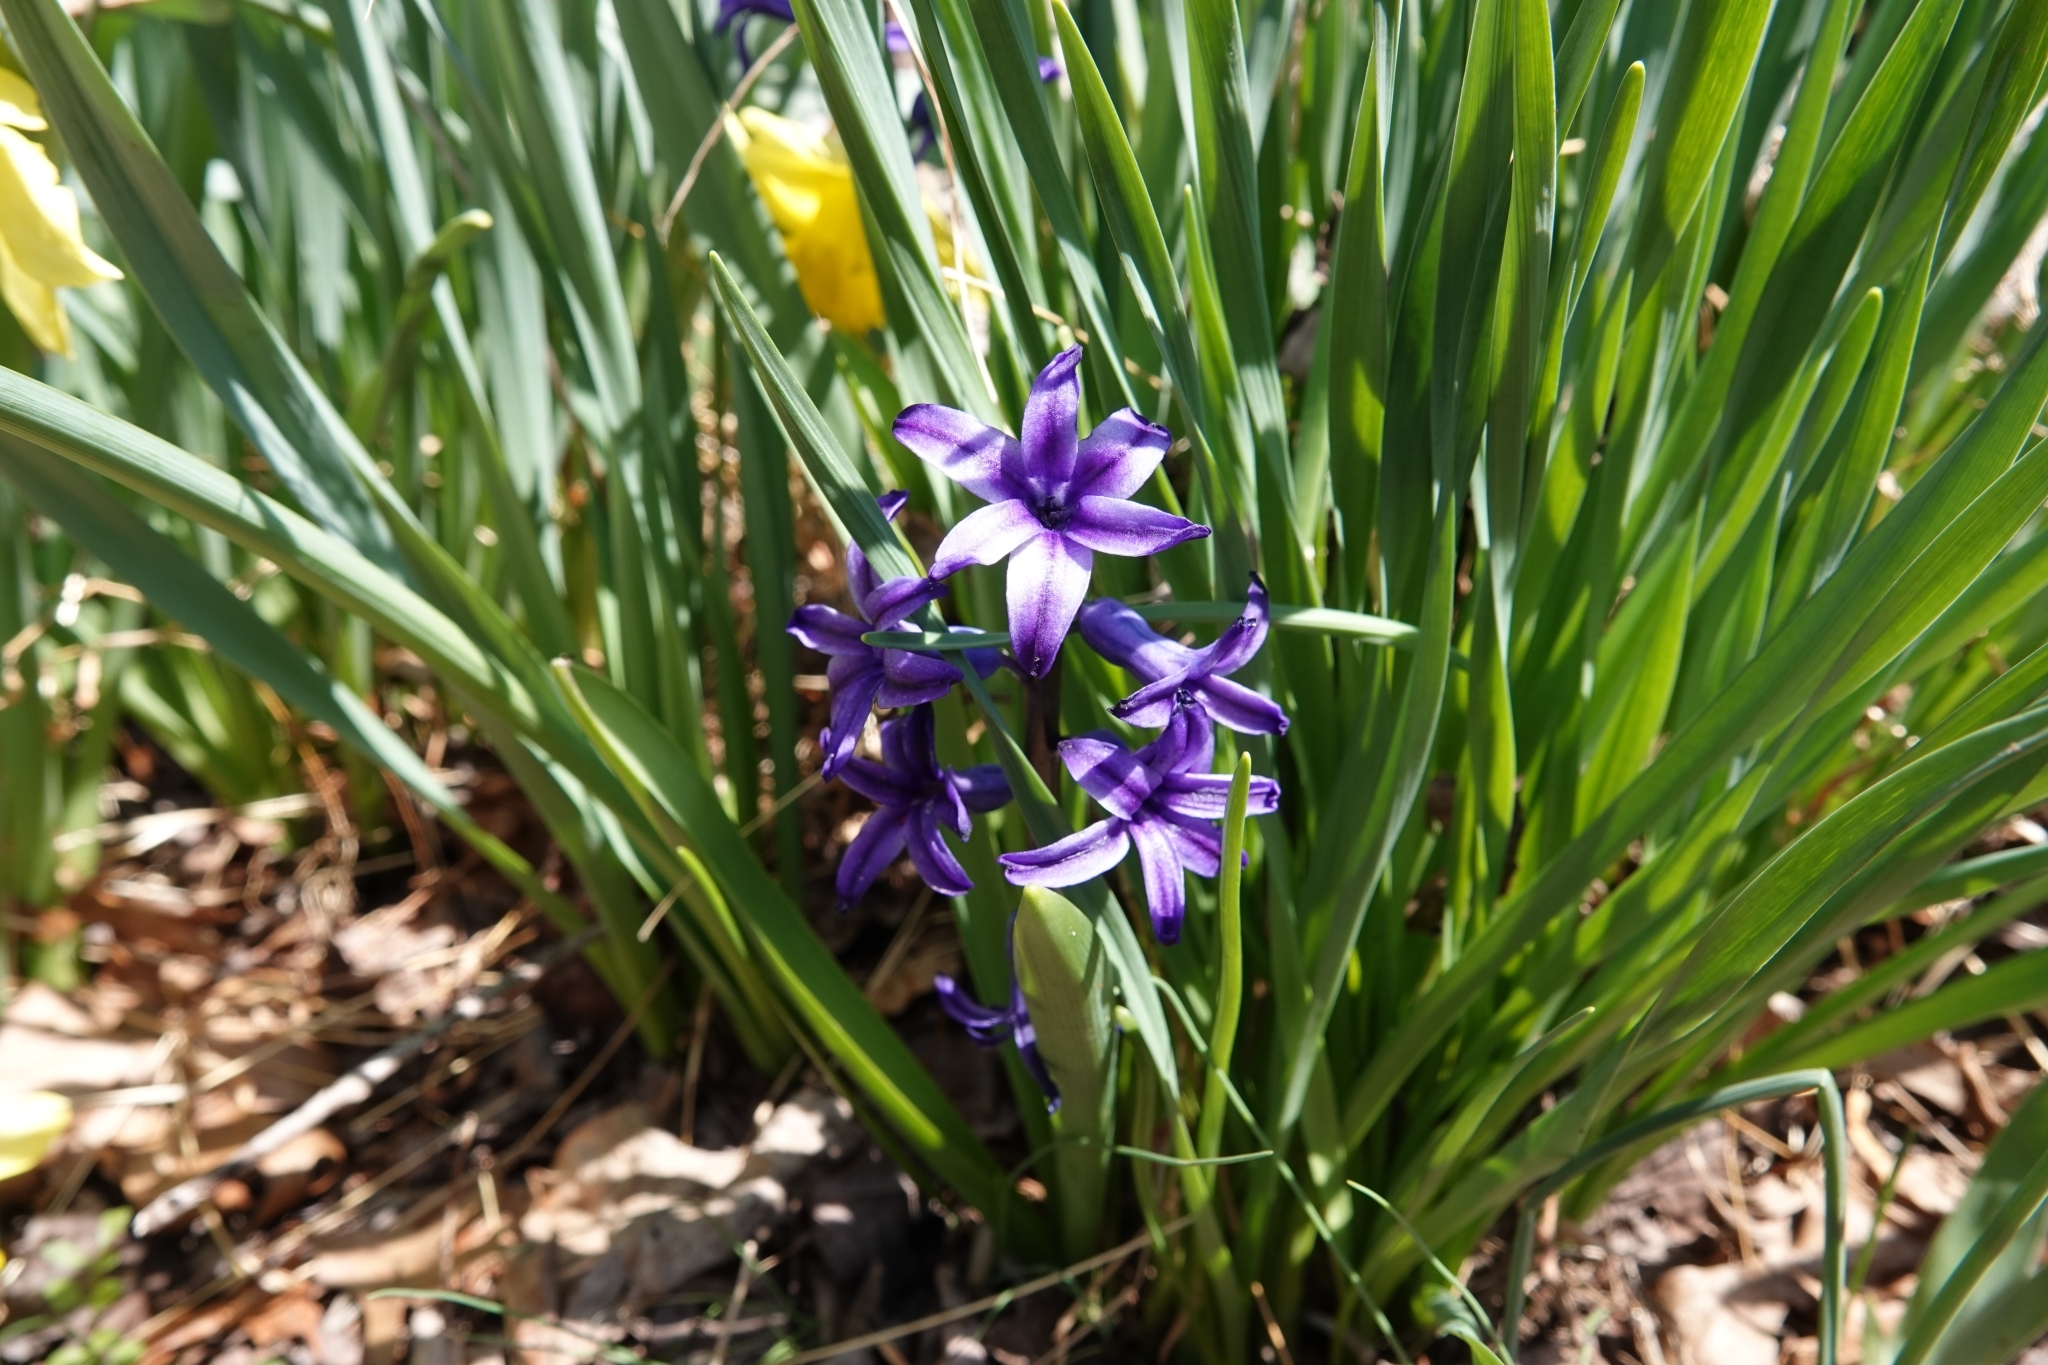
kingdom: Plantae
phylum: Tracheophyta
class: Liliopsida
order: Asparagales
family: Asparagaceae
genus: Hyacinthus
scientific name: Hyacinthus orientalis
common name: Hyacinth
